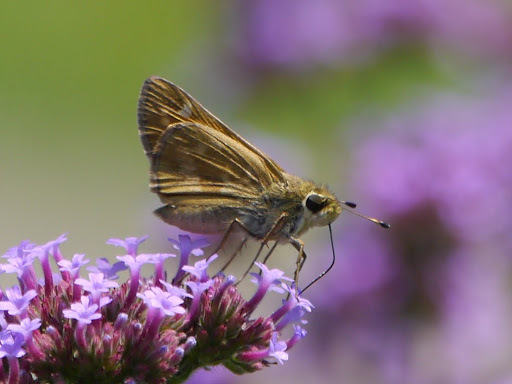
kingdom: Animalia
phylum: Arthropoda
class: Insecta
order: Lepidoptera
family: Hesperiidae
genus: Atalopedes
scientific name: Atalopedes
